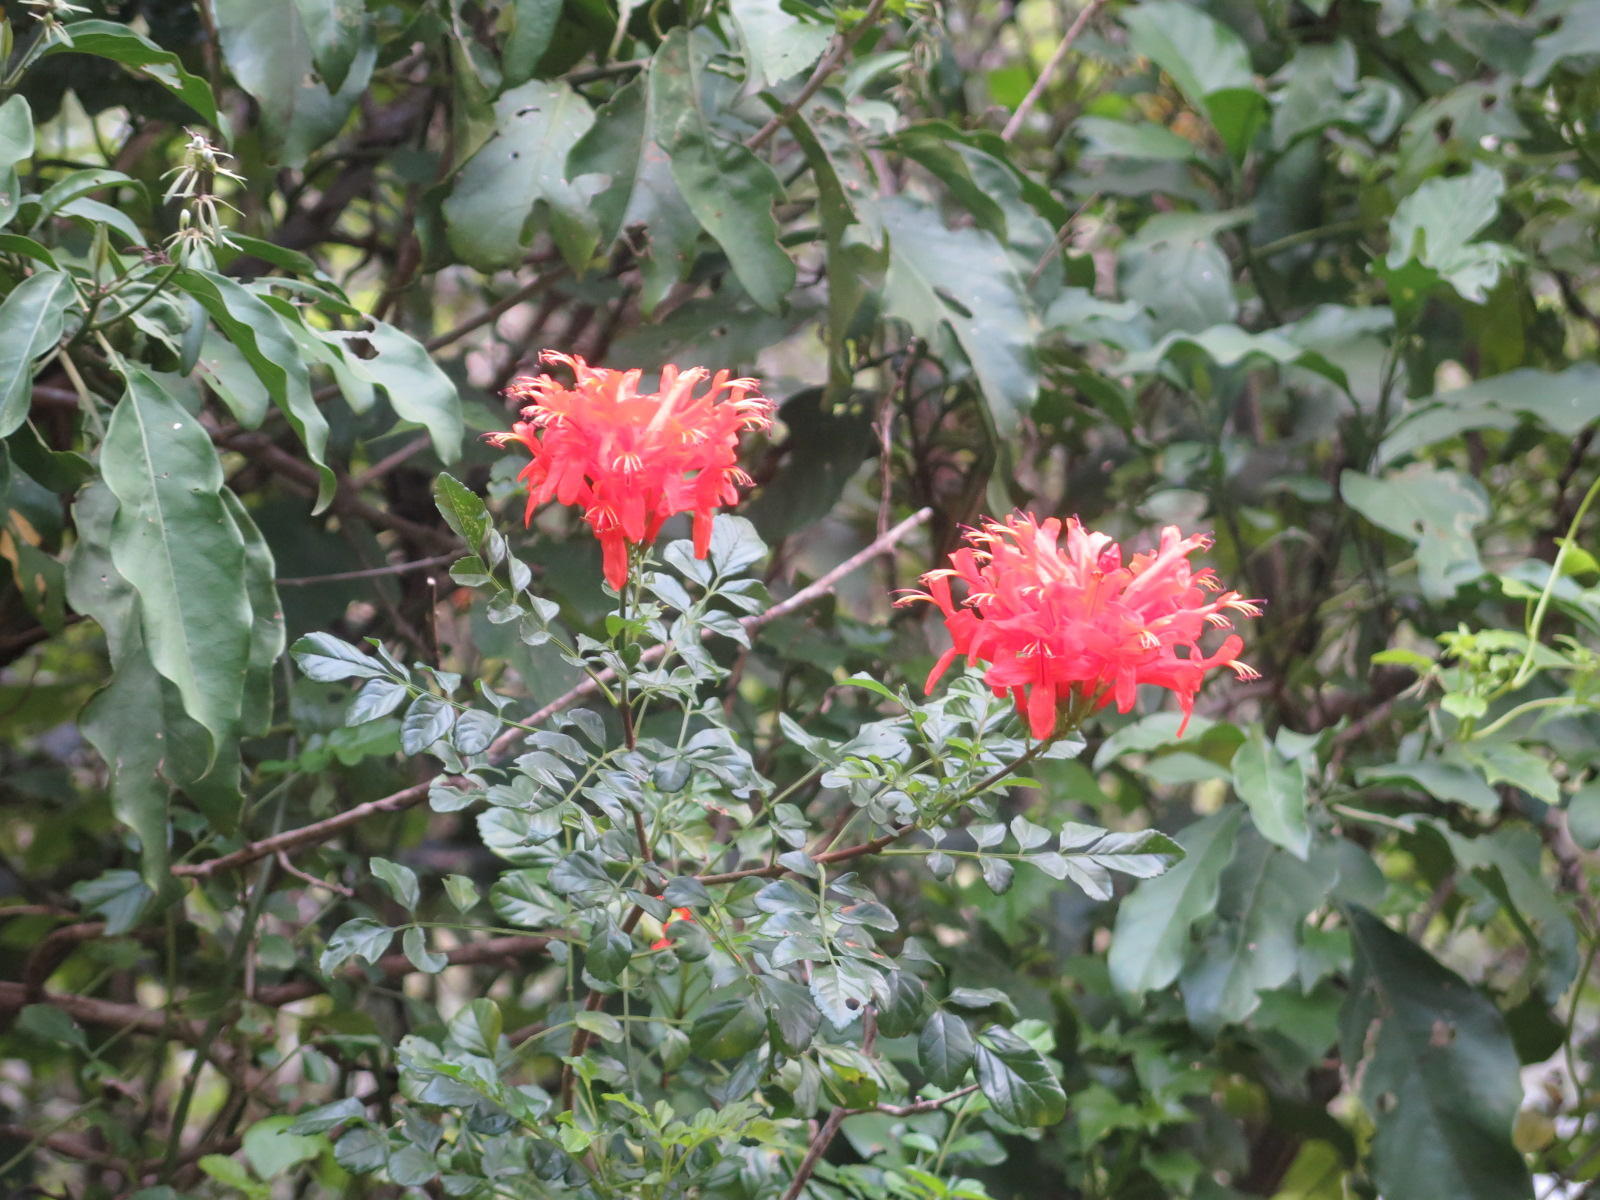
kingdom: Plantae
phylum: Tracheophyta
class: Magnoliopsida
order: Lamiales
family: Bignoniaceae
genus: Tecomaria
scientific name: Tecomaria capensis
